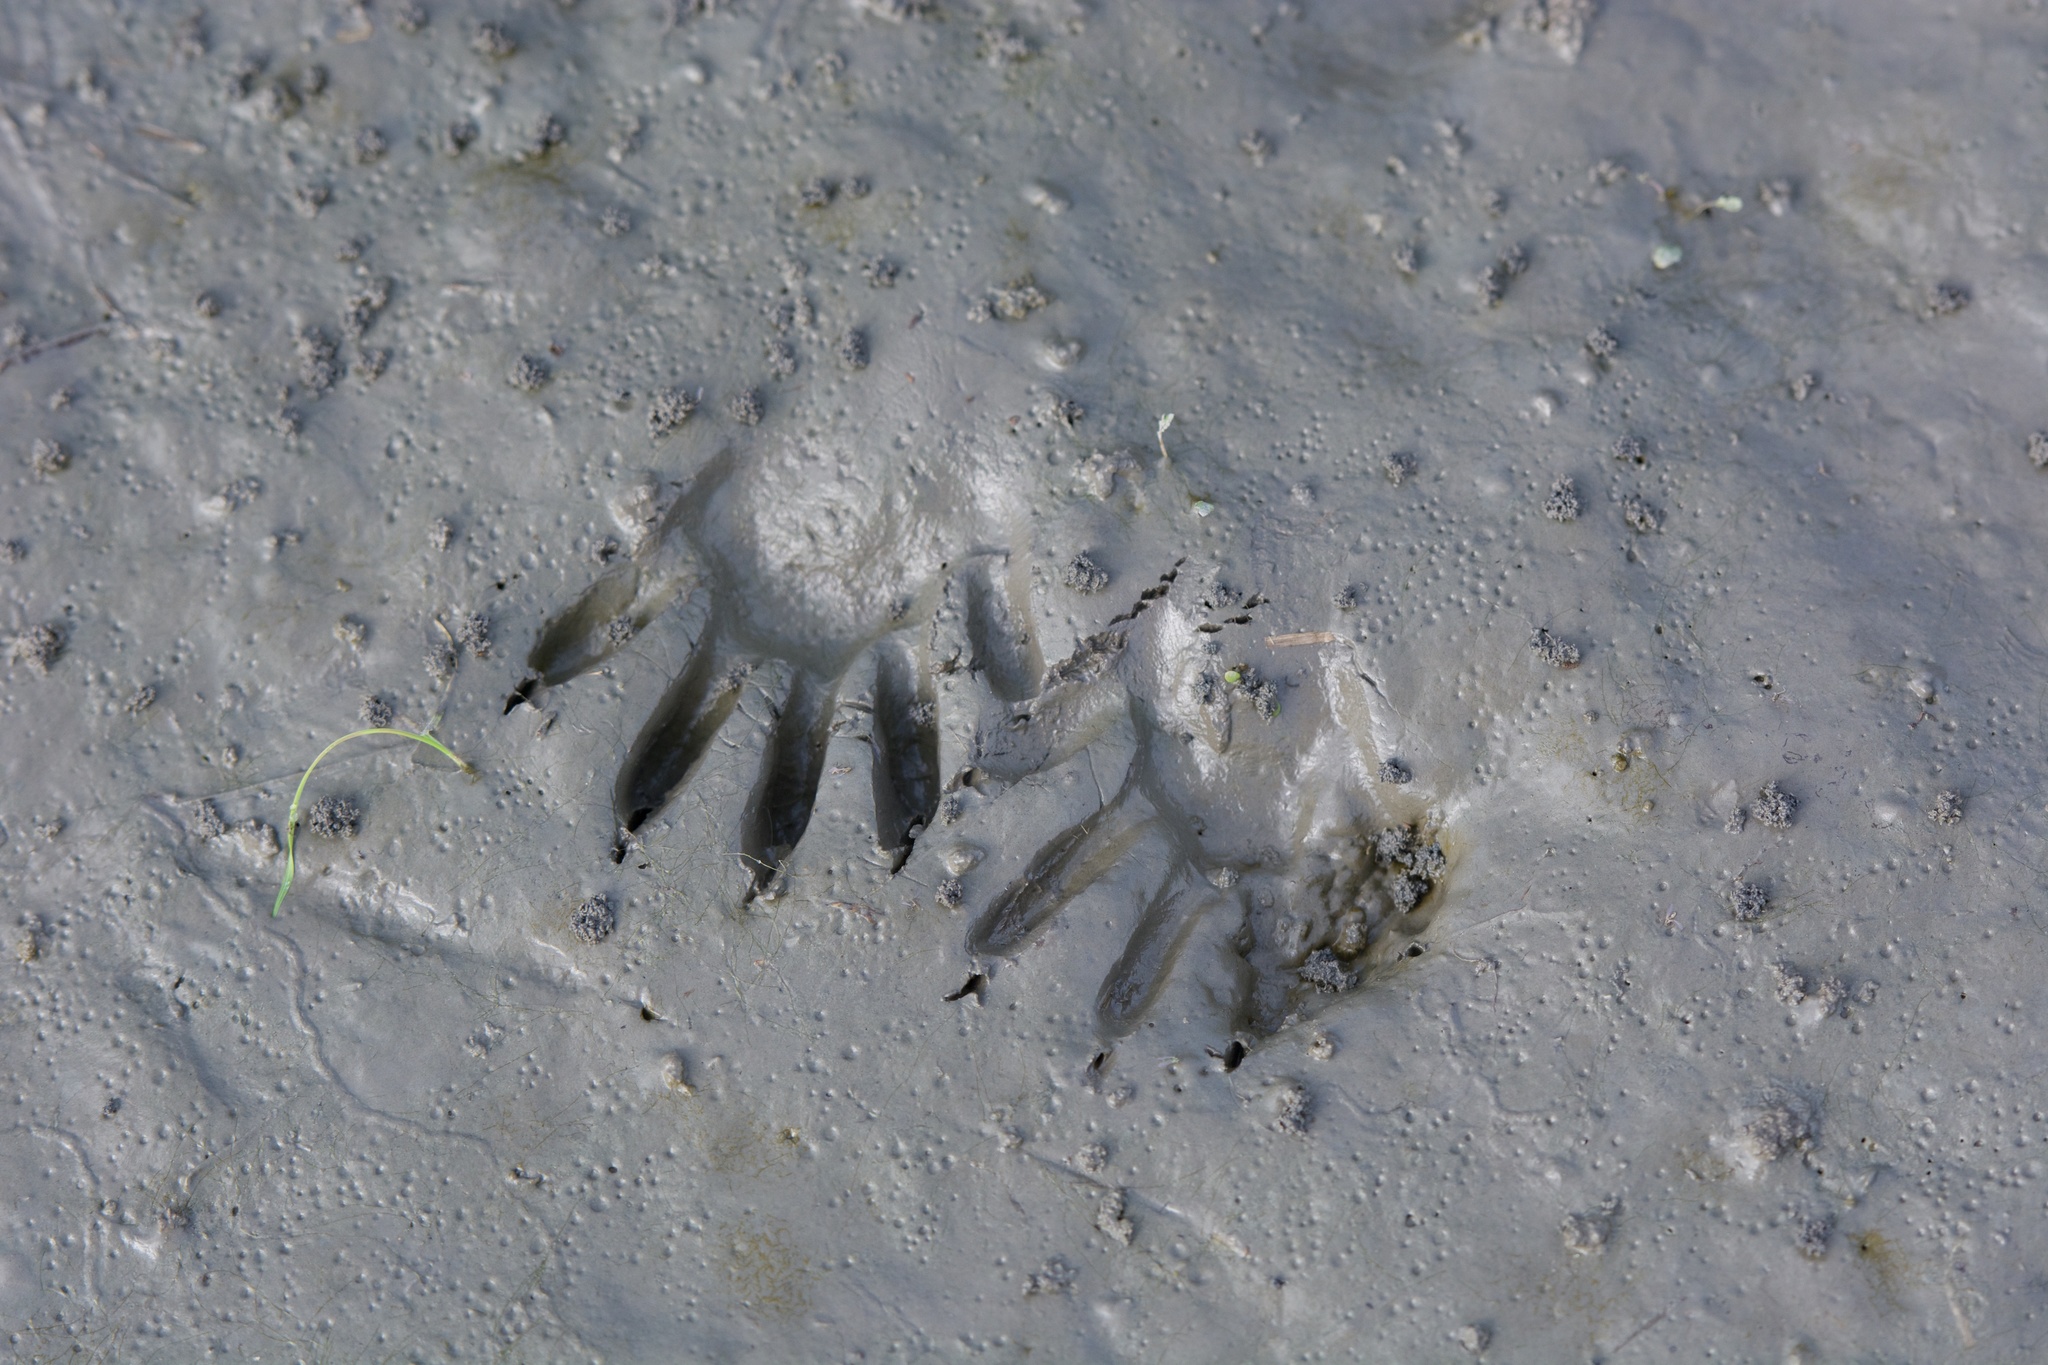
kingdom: Animalia
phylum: Chordata
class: Mammalia
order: Carnivora
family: Procyonidae
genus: Procyon
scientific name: Procyon lotor
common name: Raccoon
